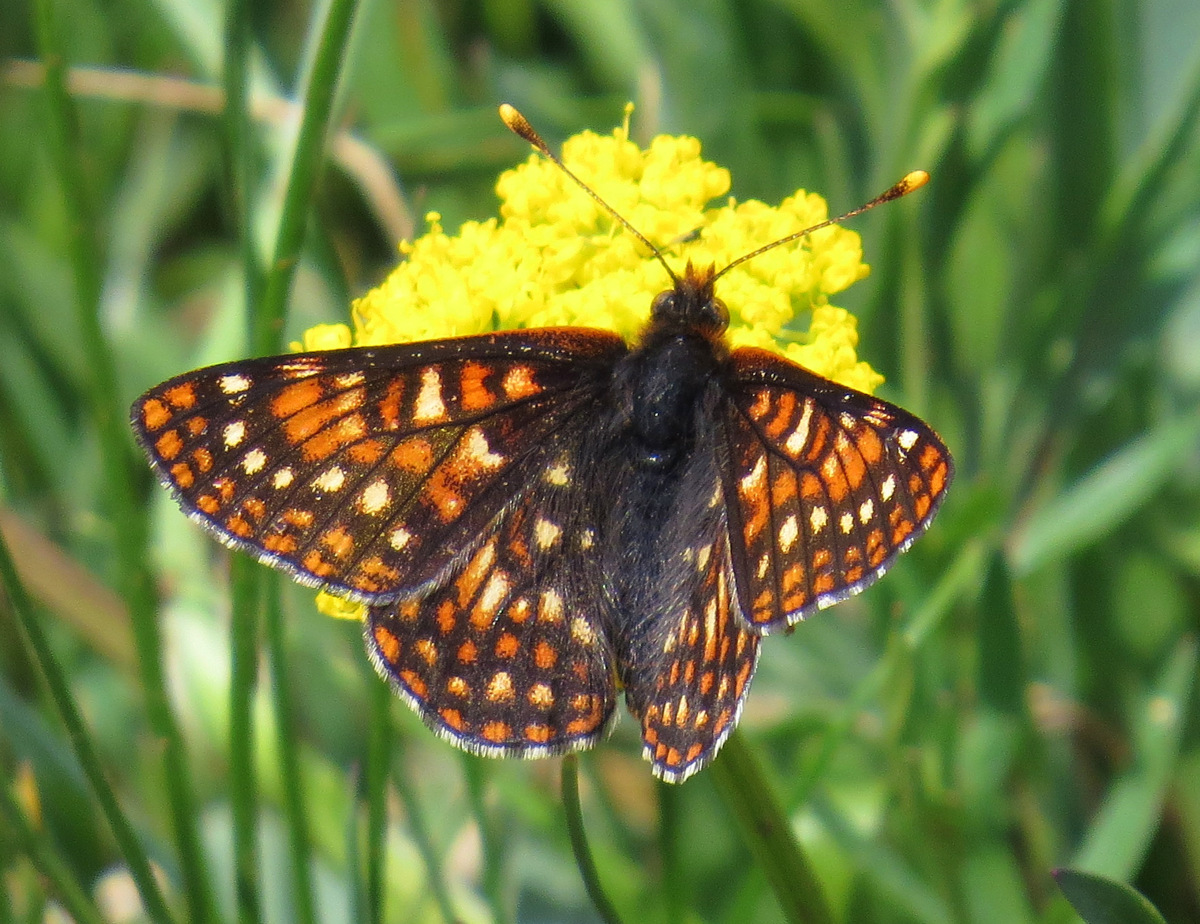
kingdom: Animalia
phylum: Arthropoda
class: Insecta
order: Lepidoptera
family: Nymphalidae
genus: Occidryas
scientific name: Occidryas anicia
